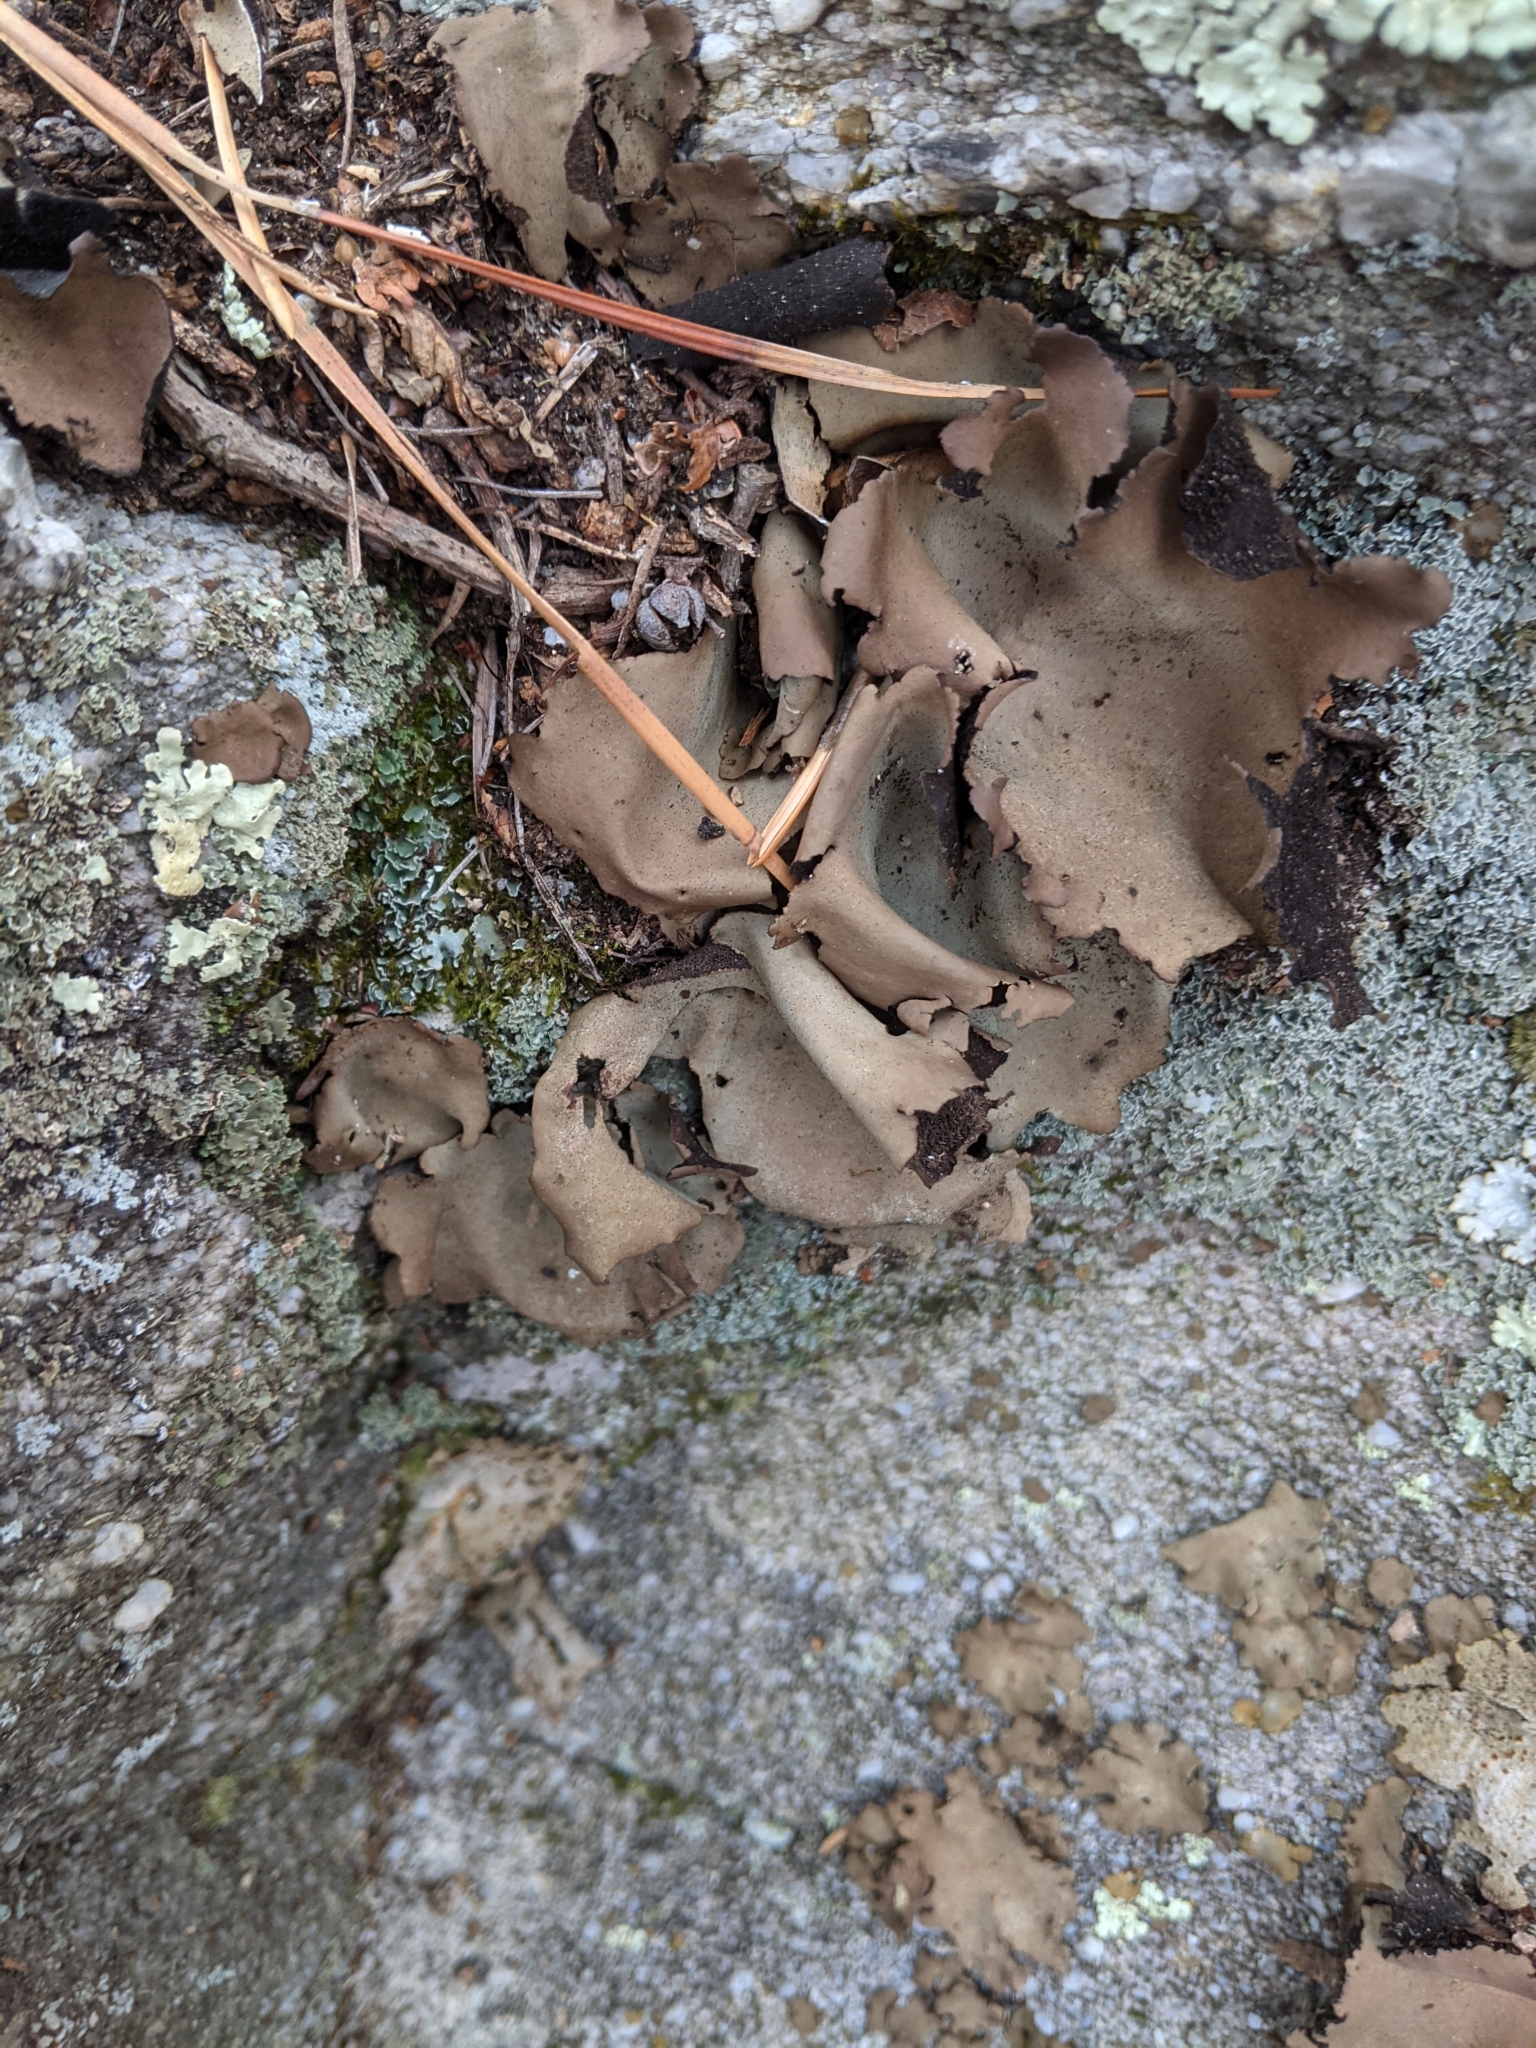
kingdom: Fungi
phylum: Ascomycota
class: Lecanoromycetes
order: Umbilicariales
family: Umbilicariaceae
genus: Umbilicaria
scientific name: Umbilicaria mammulata
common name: Smooth rock tripe
